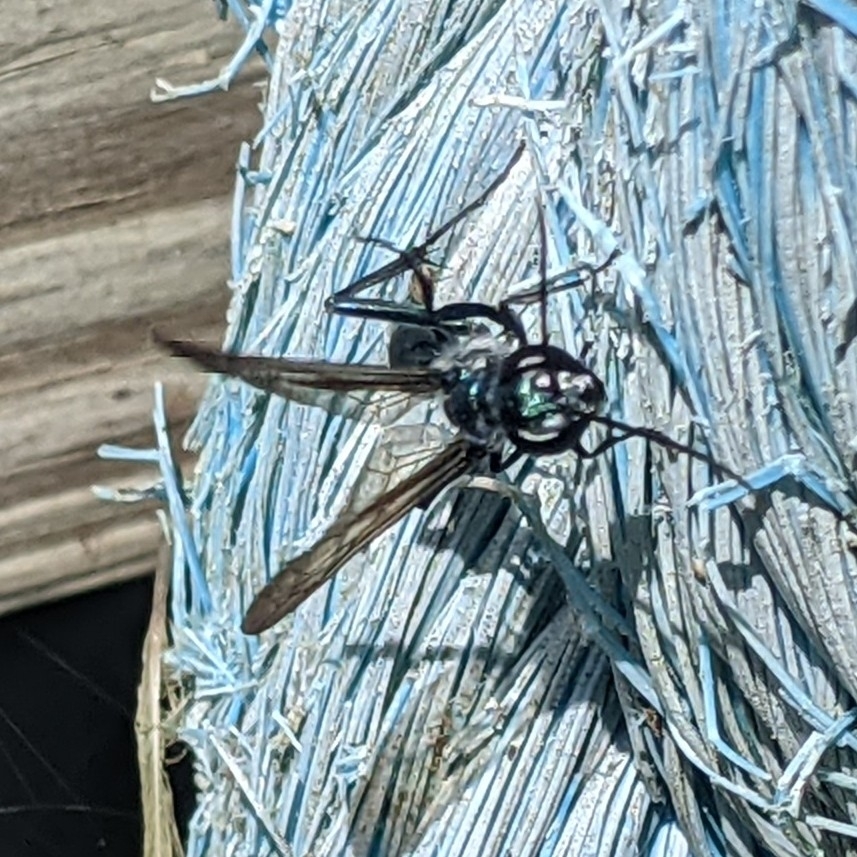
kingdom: Animalia
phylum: Arthropoda
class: Insecta
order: Hymenoptera
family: Sphecidae
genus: Chalybion
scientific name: Chalybion zimmermanni
